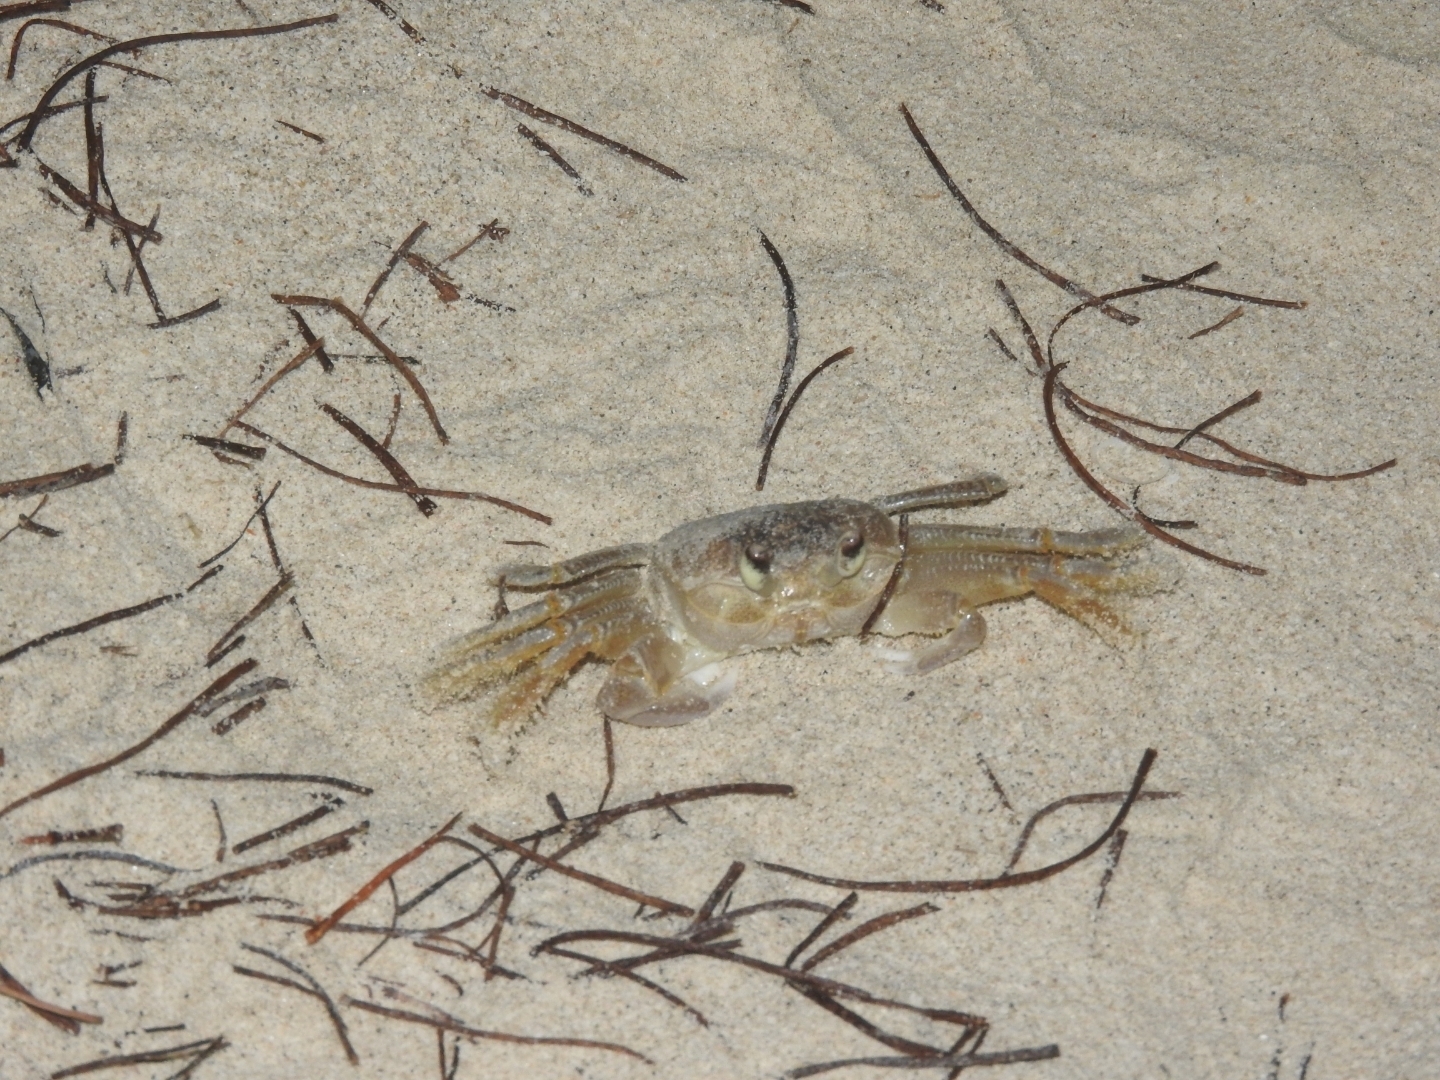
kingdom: Animalia
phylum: Arthropoda
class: Malacostraca
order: Decapoda
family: Ocypodidae
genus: Ocypode
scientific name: Ocypode quadrata
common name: Ghost crab
